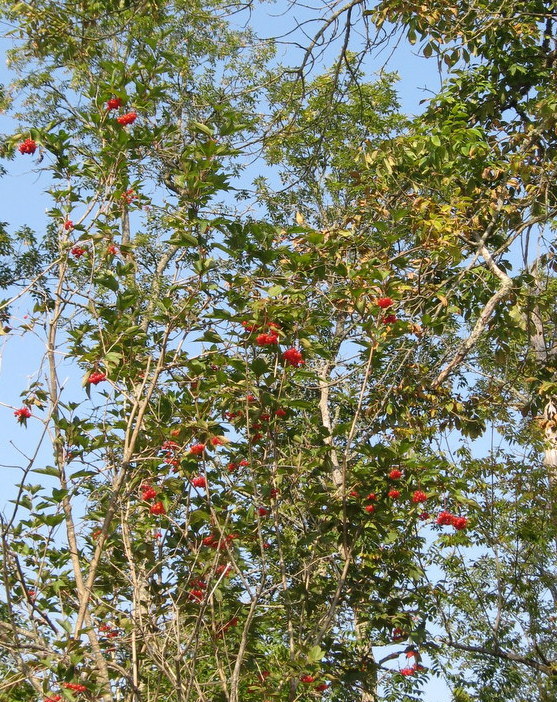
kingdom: Plantae
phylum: Tracheophyta
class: Magnoliopsida
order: Dipsacales
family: Viburnaceae
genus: Viburnum
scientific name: Viburnum opulus
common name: Guelder-rose
